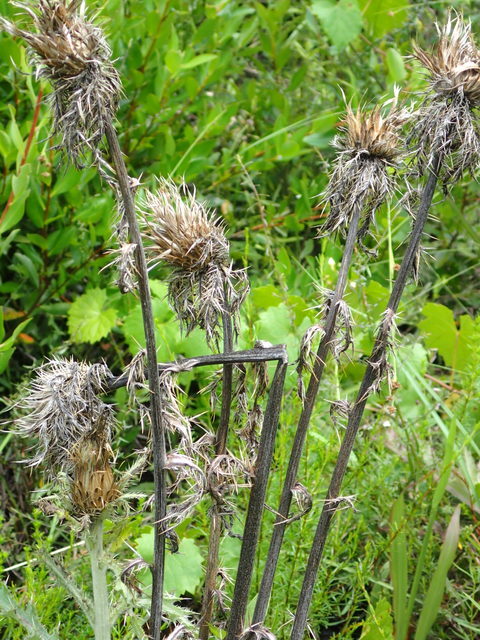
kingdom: Plantae
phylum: Tracheophyta
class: Magnoliopsida
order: Asterales
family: Asteraceae
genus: Cirsium
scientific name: Cirsium horridulum
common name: Bristly thistle
